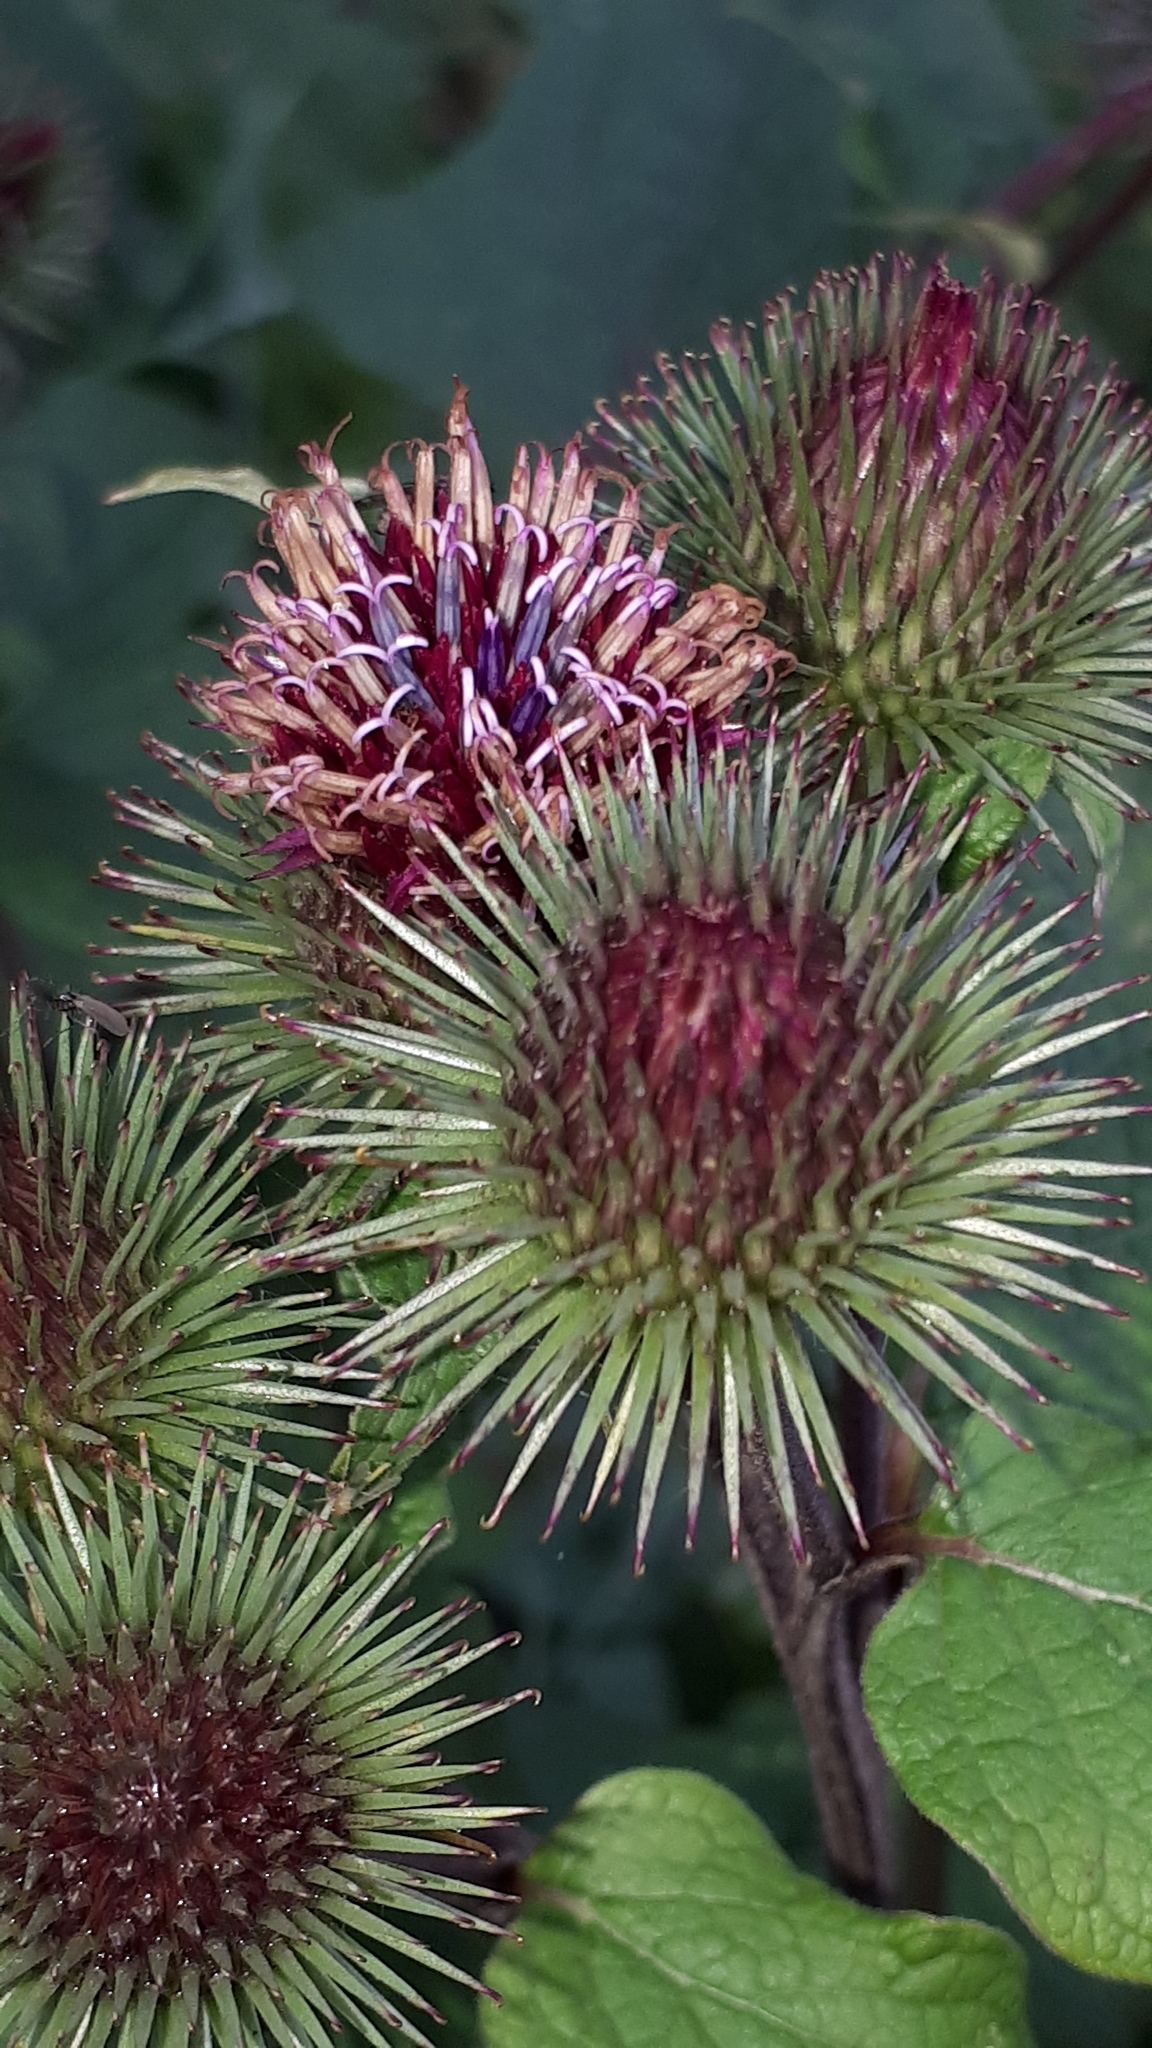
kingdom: Plantae
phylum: Tracheophyta
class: Magnoliopsida
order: Asterales
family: Asteraceae
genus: Arctium
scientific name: Arctium lappa
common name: Greater burdock
